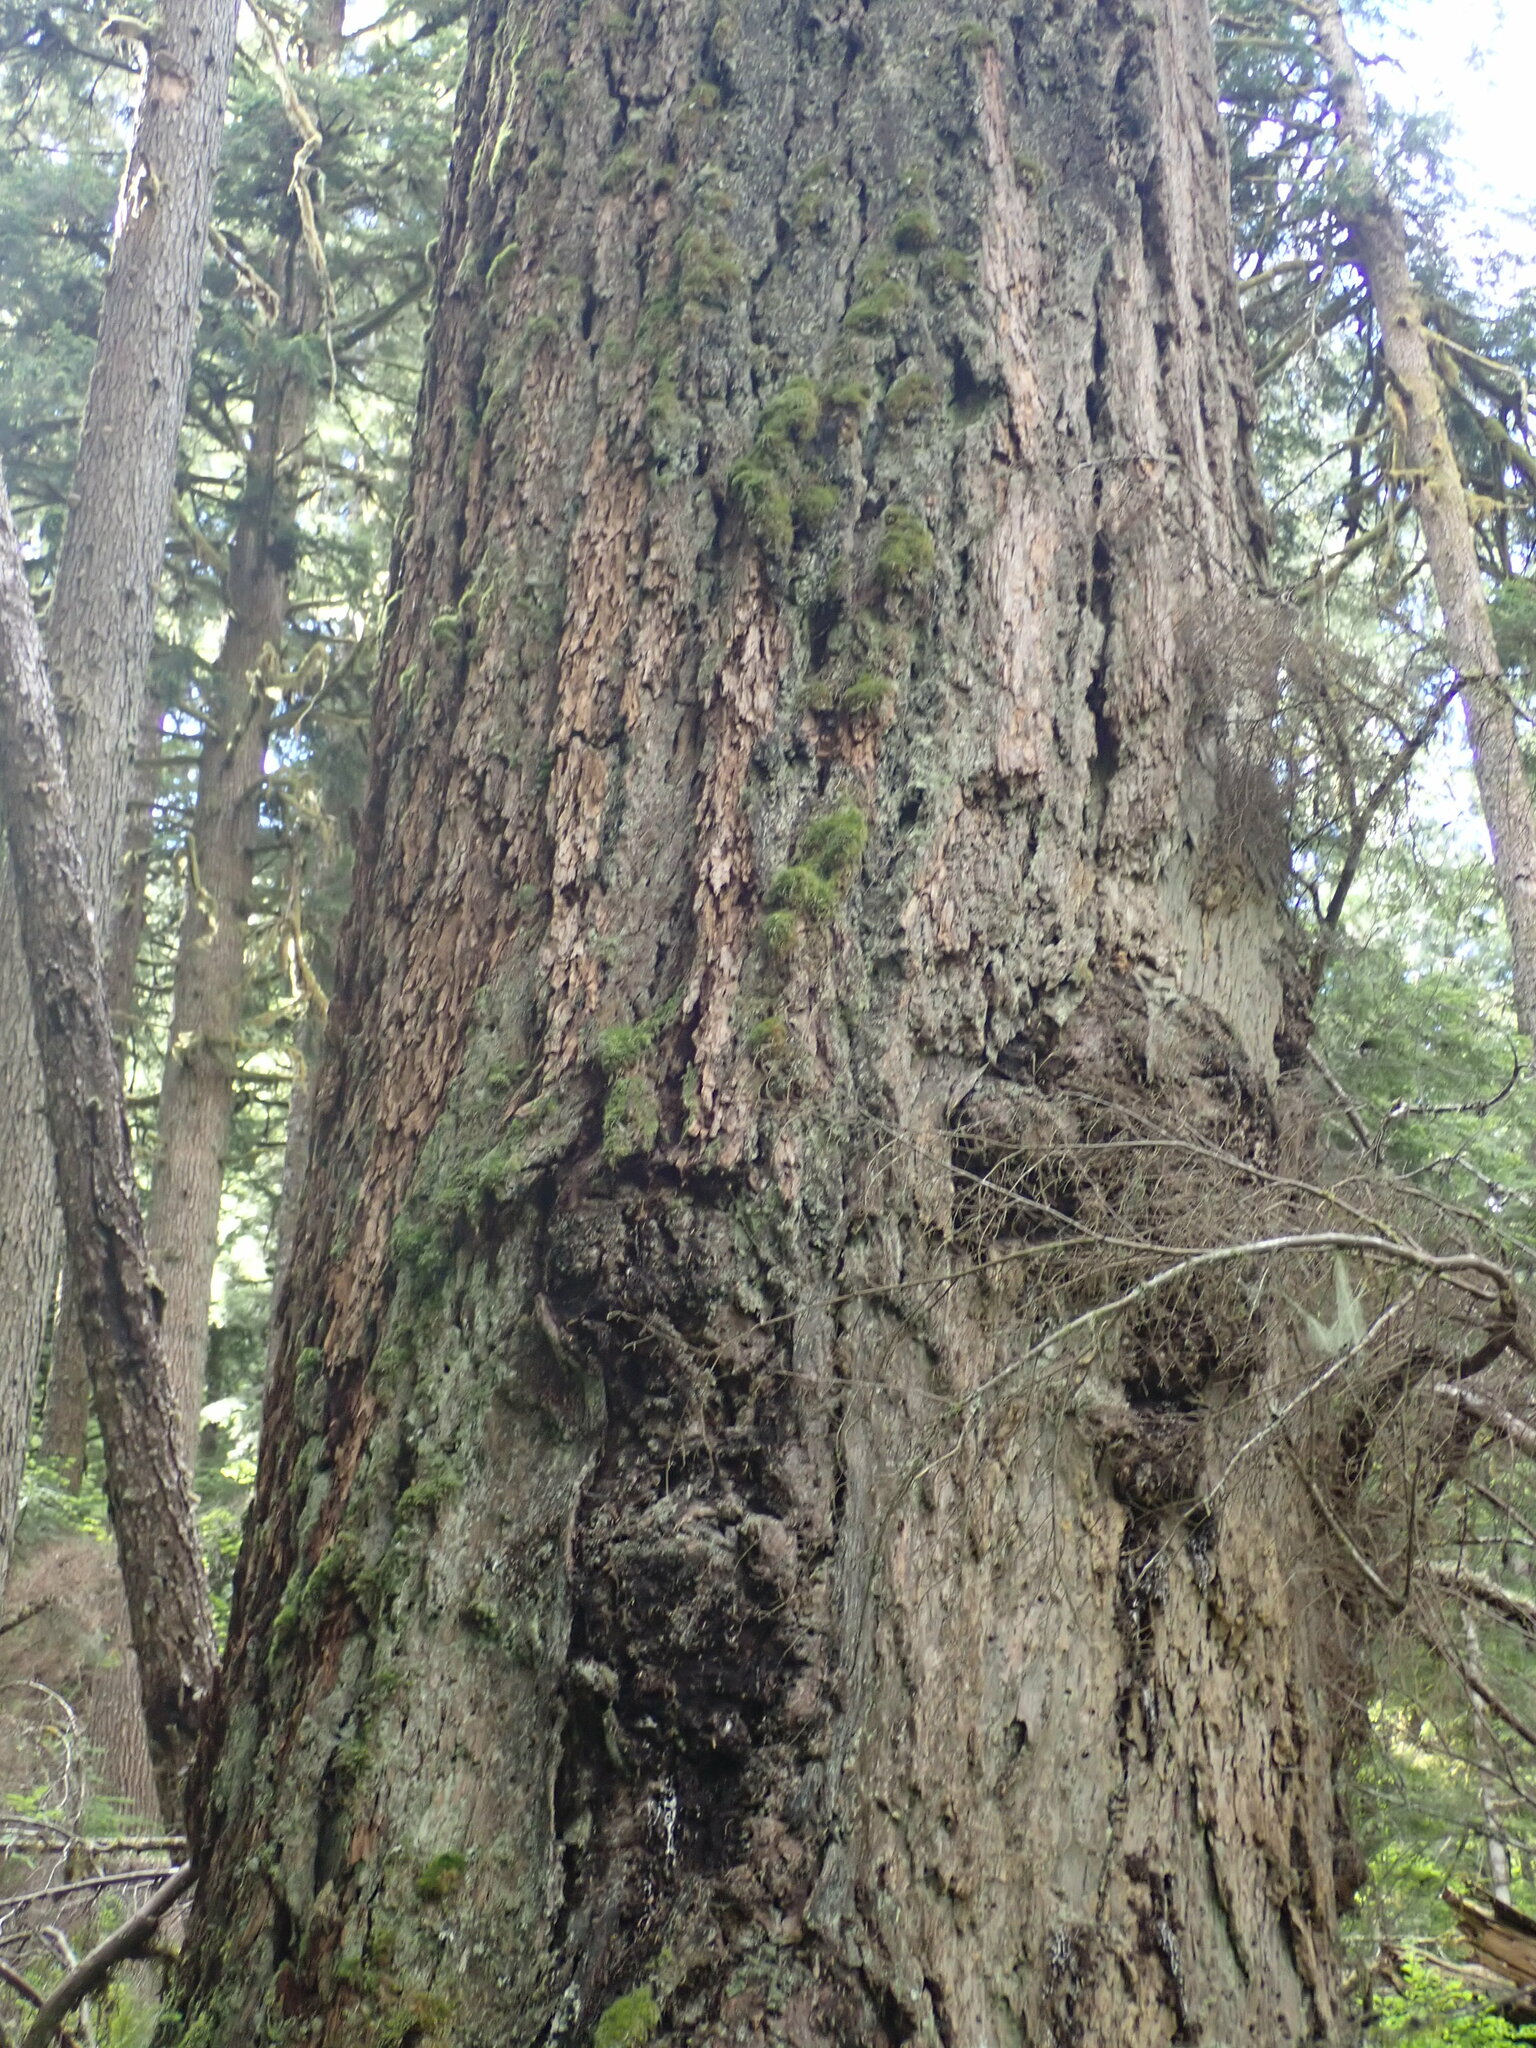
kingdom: Plantae
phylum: Tracheophyta
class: Pinopsida
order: Pinales
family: Pinaceae
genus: Pseudotsuga
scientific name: Pseudotsuga menziesii
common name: Douglas fir
